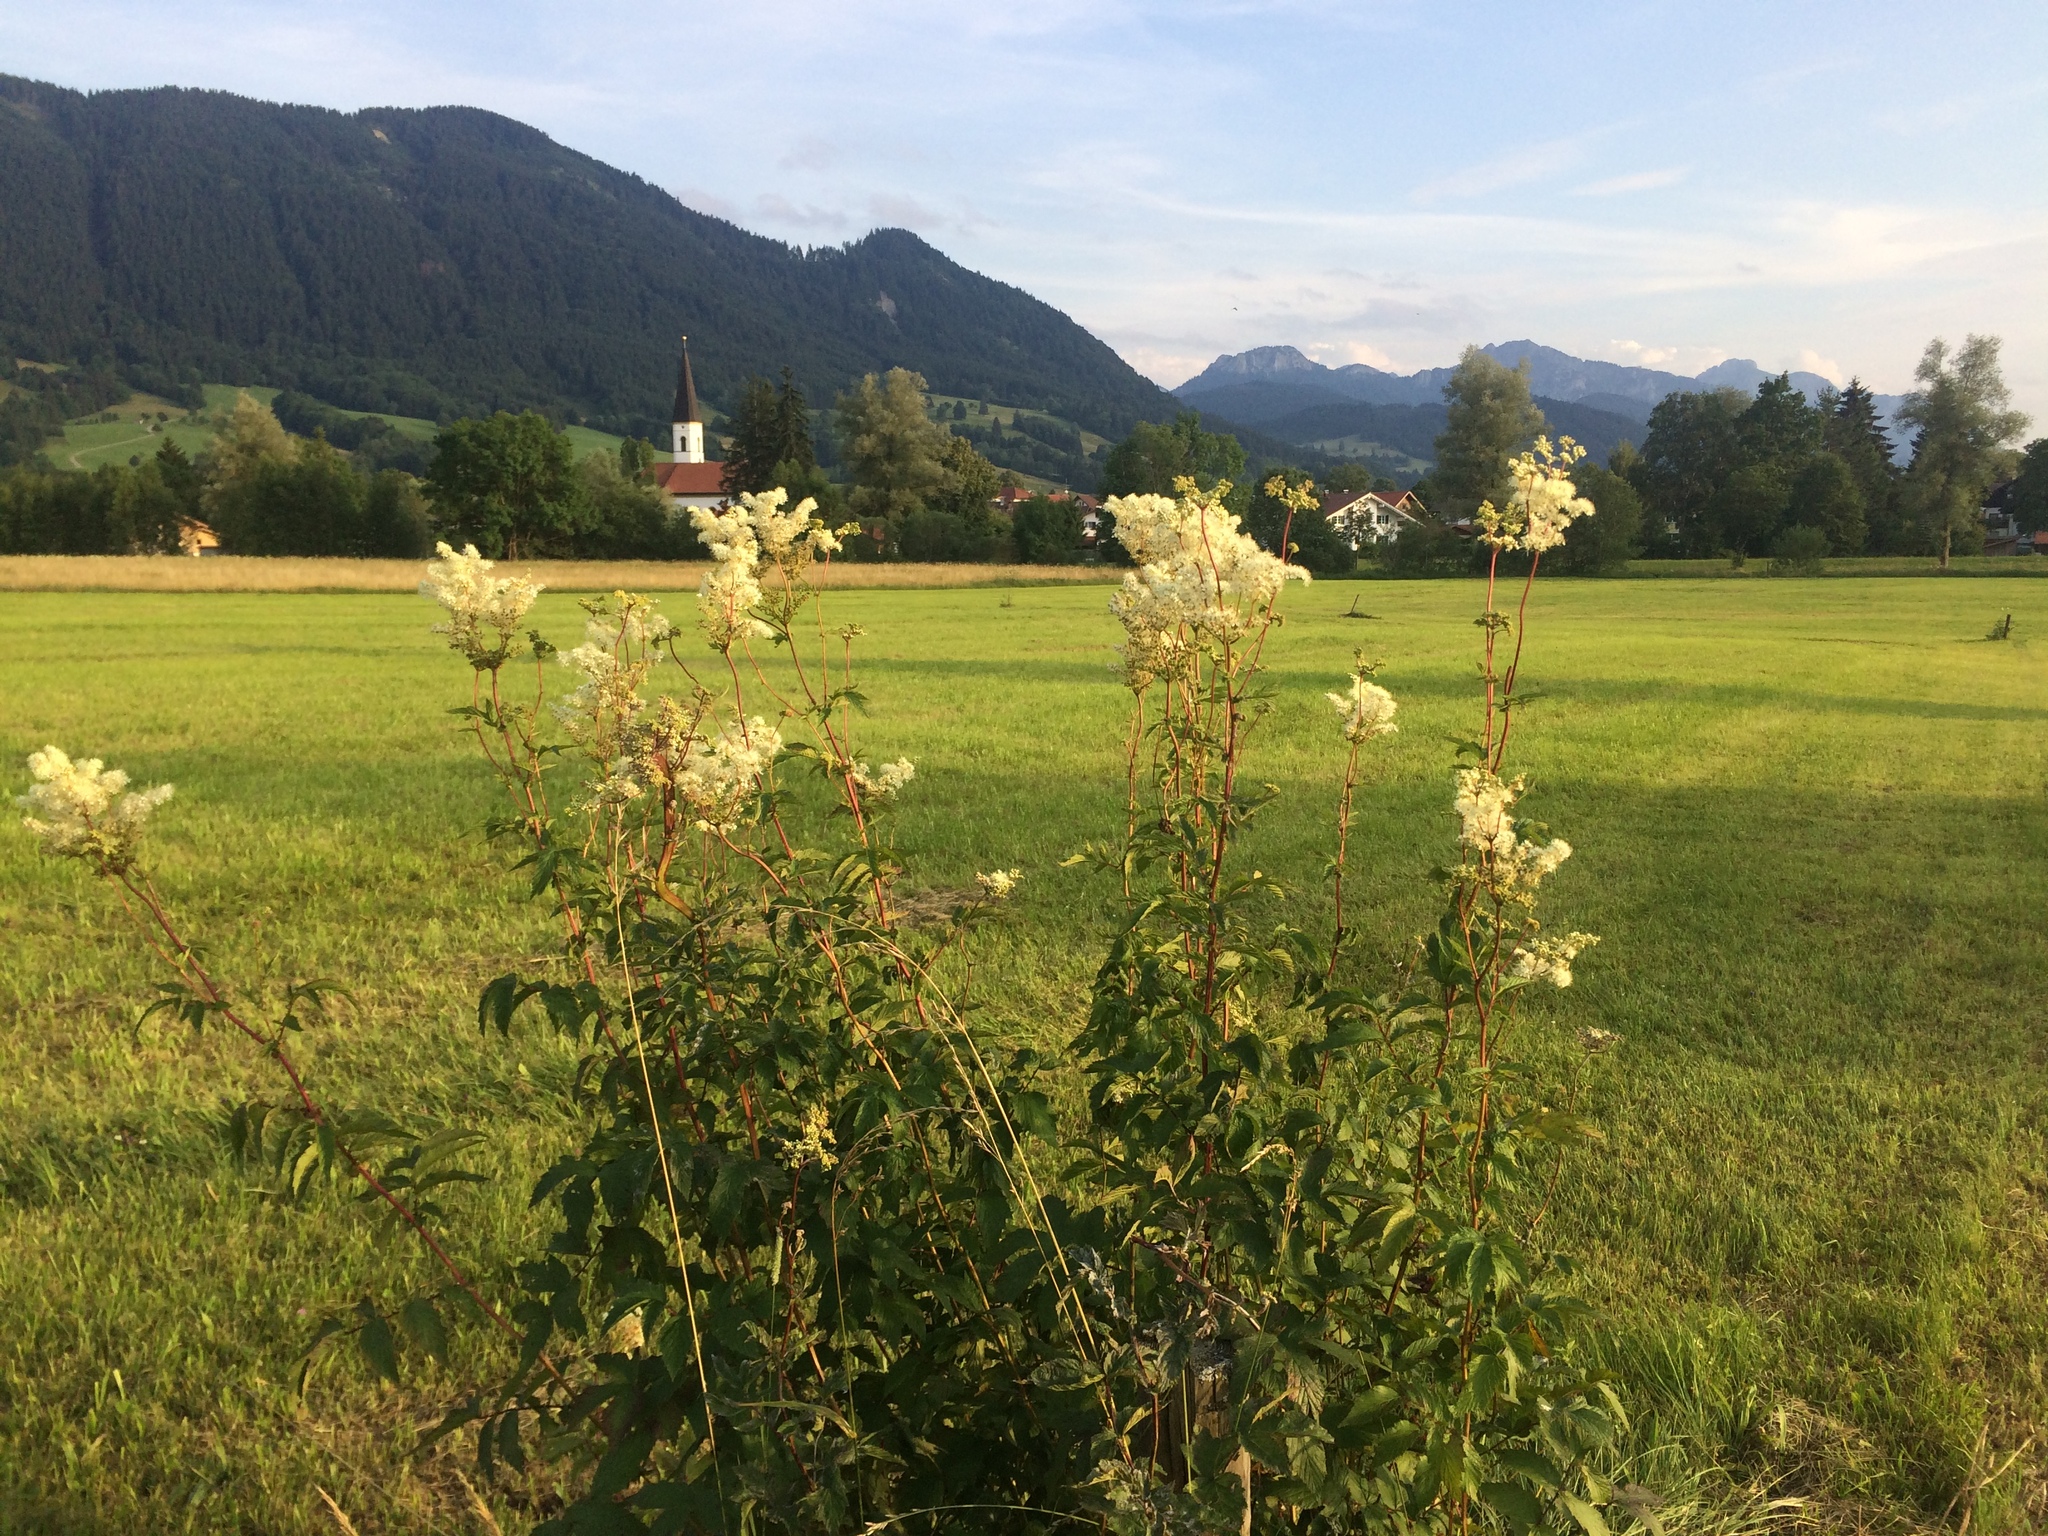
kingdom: Plantae
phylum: Tracheophyta
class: Magnoliopsida
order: Rosales
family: Rosaceae
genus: Filipendula
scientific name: Filipendula ulmaria
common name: Meadowsweet
